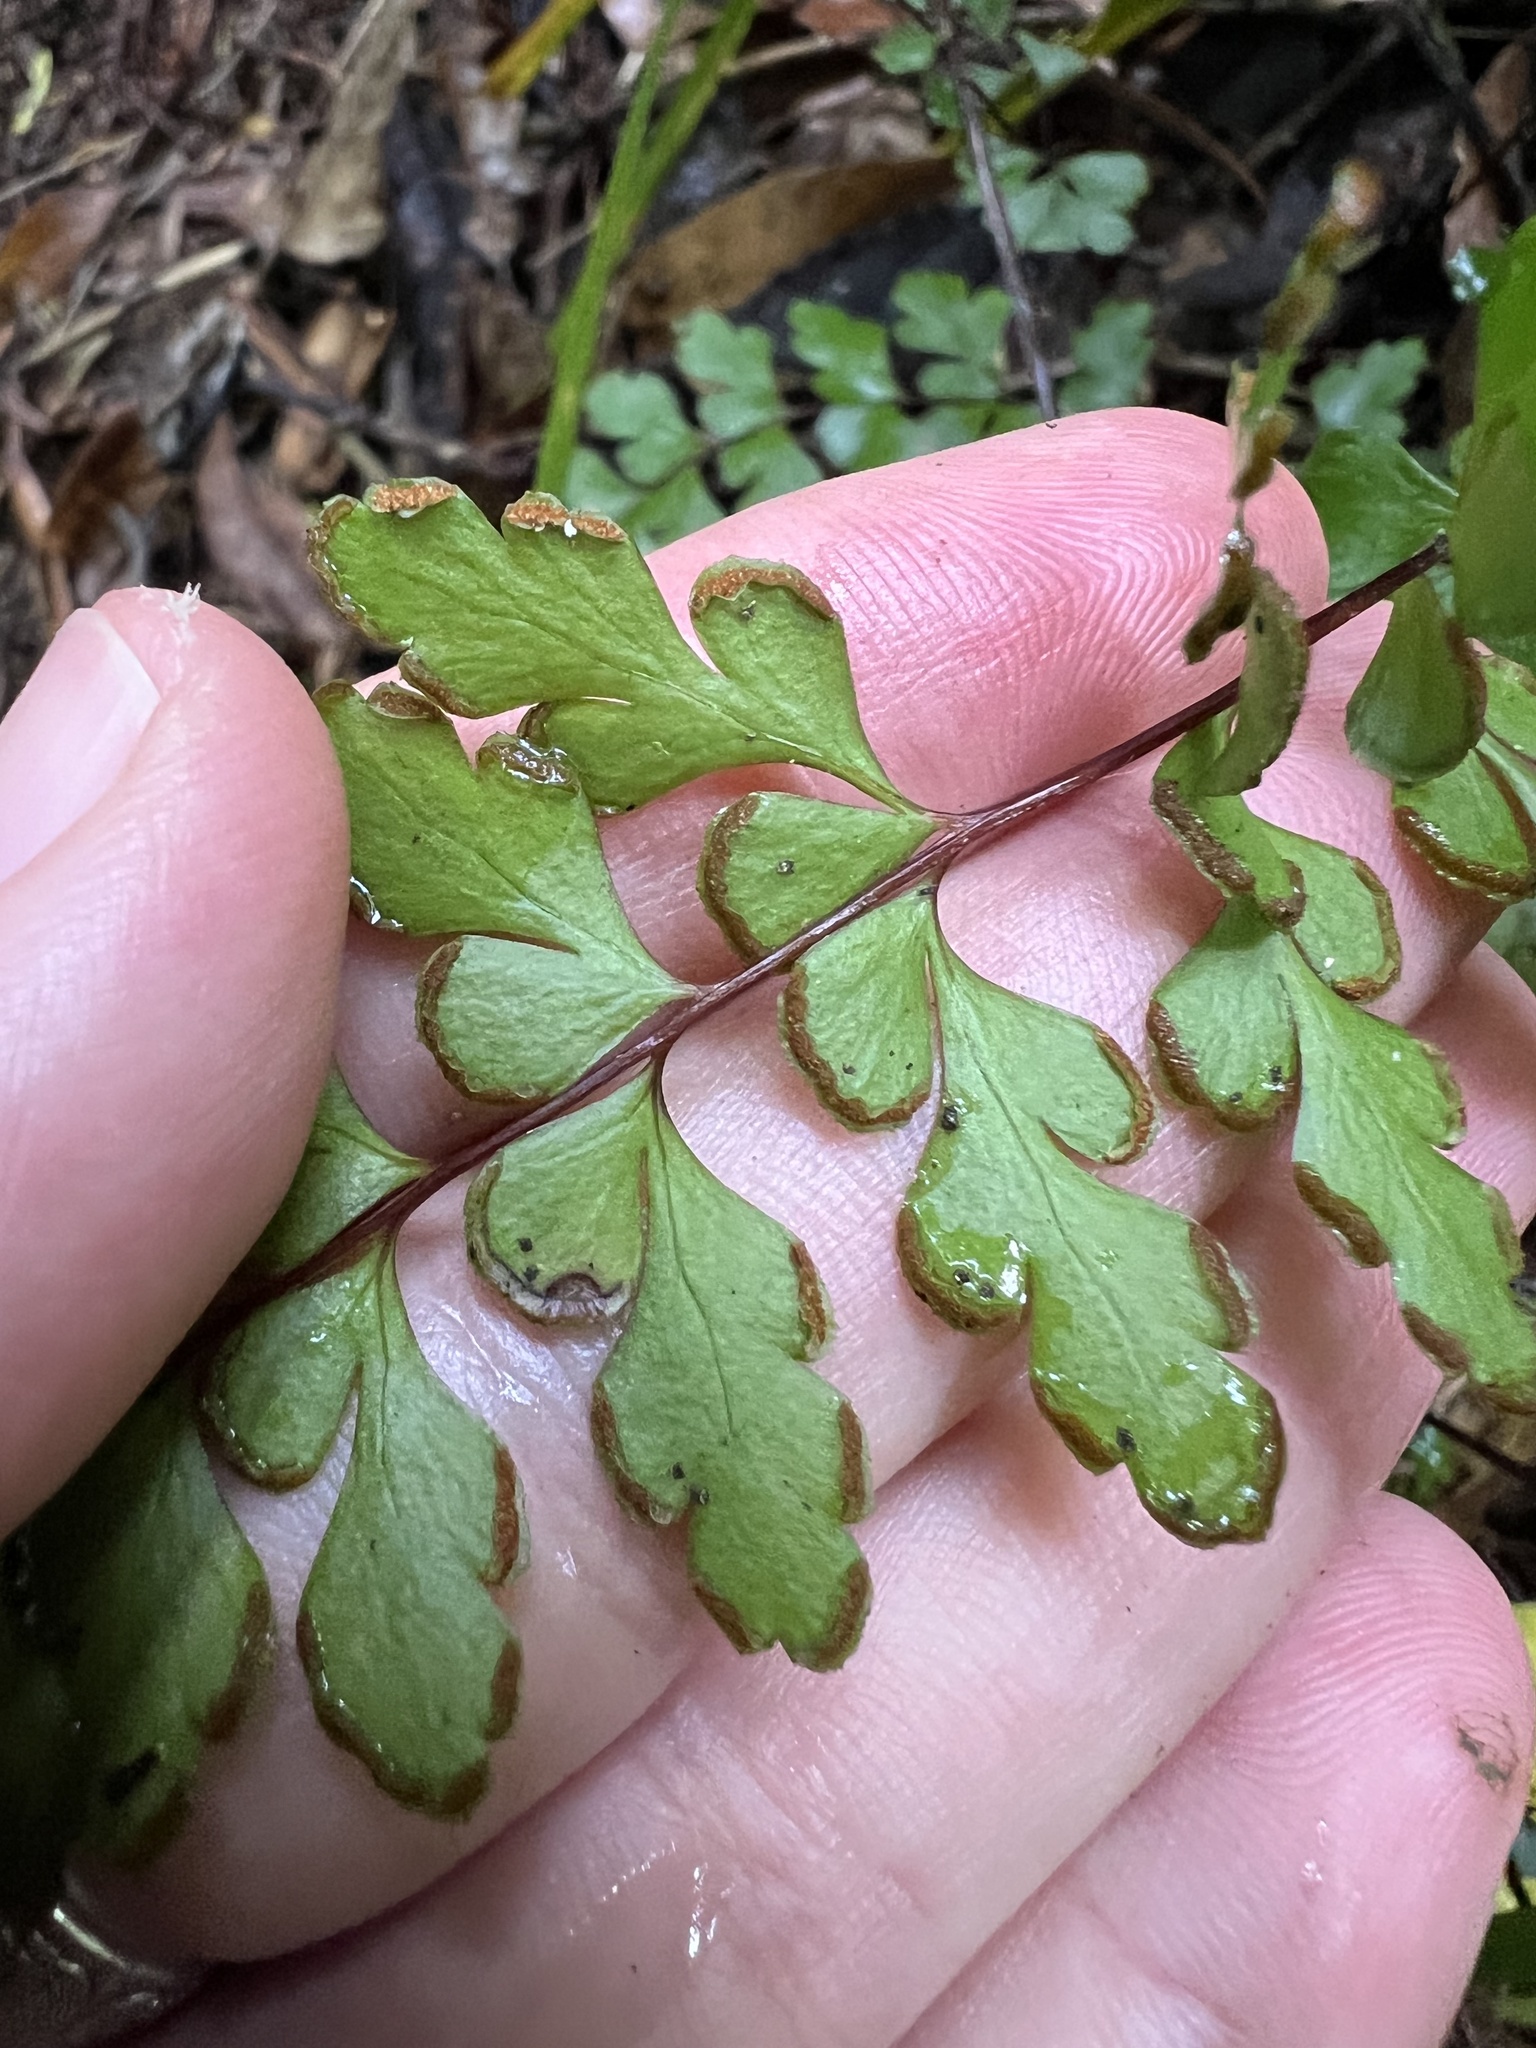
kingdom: Plantae
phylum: Tracheophyta
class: Polypodiopsida
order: Polypodiales
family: Lindsaeaceae
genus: Lindsaea
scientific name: Lindsaea trichomanoides
